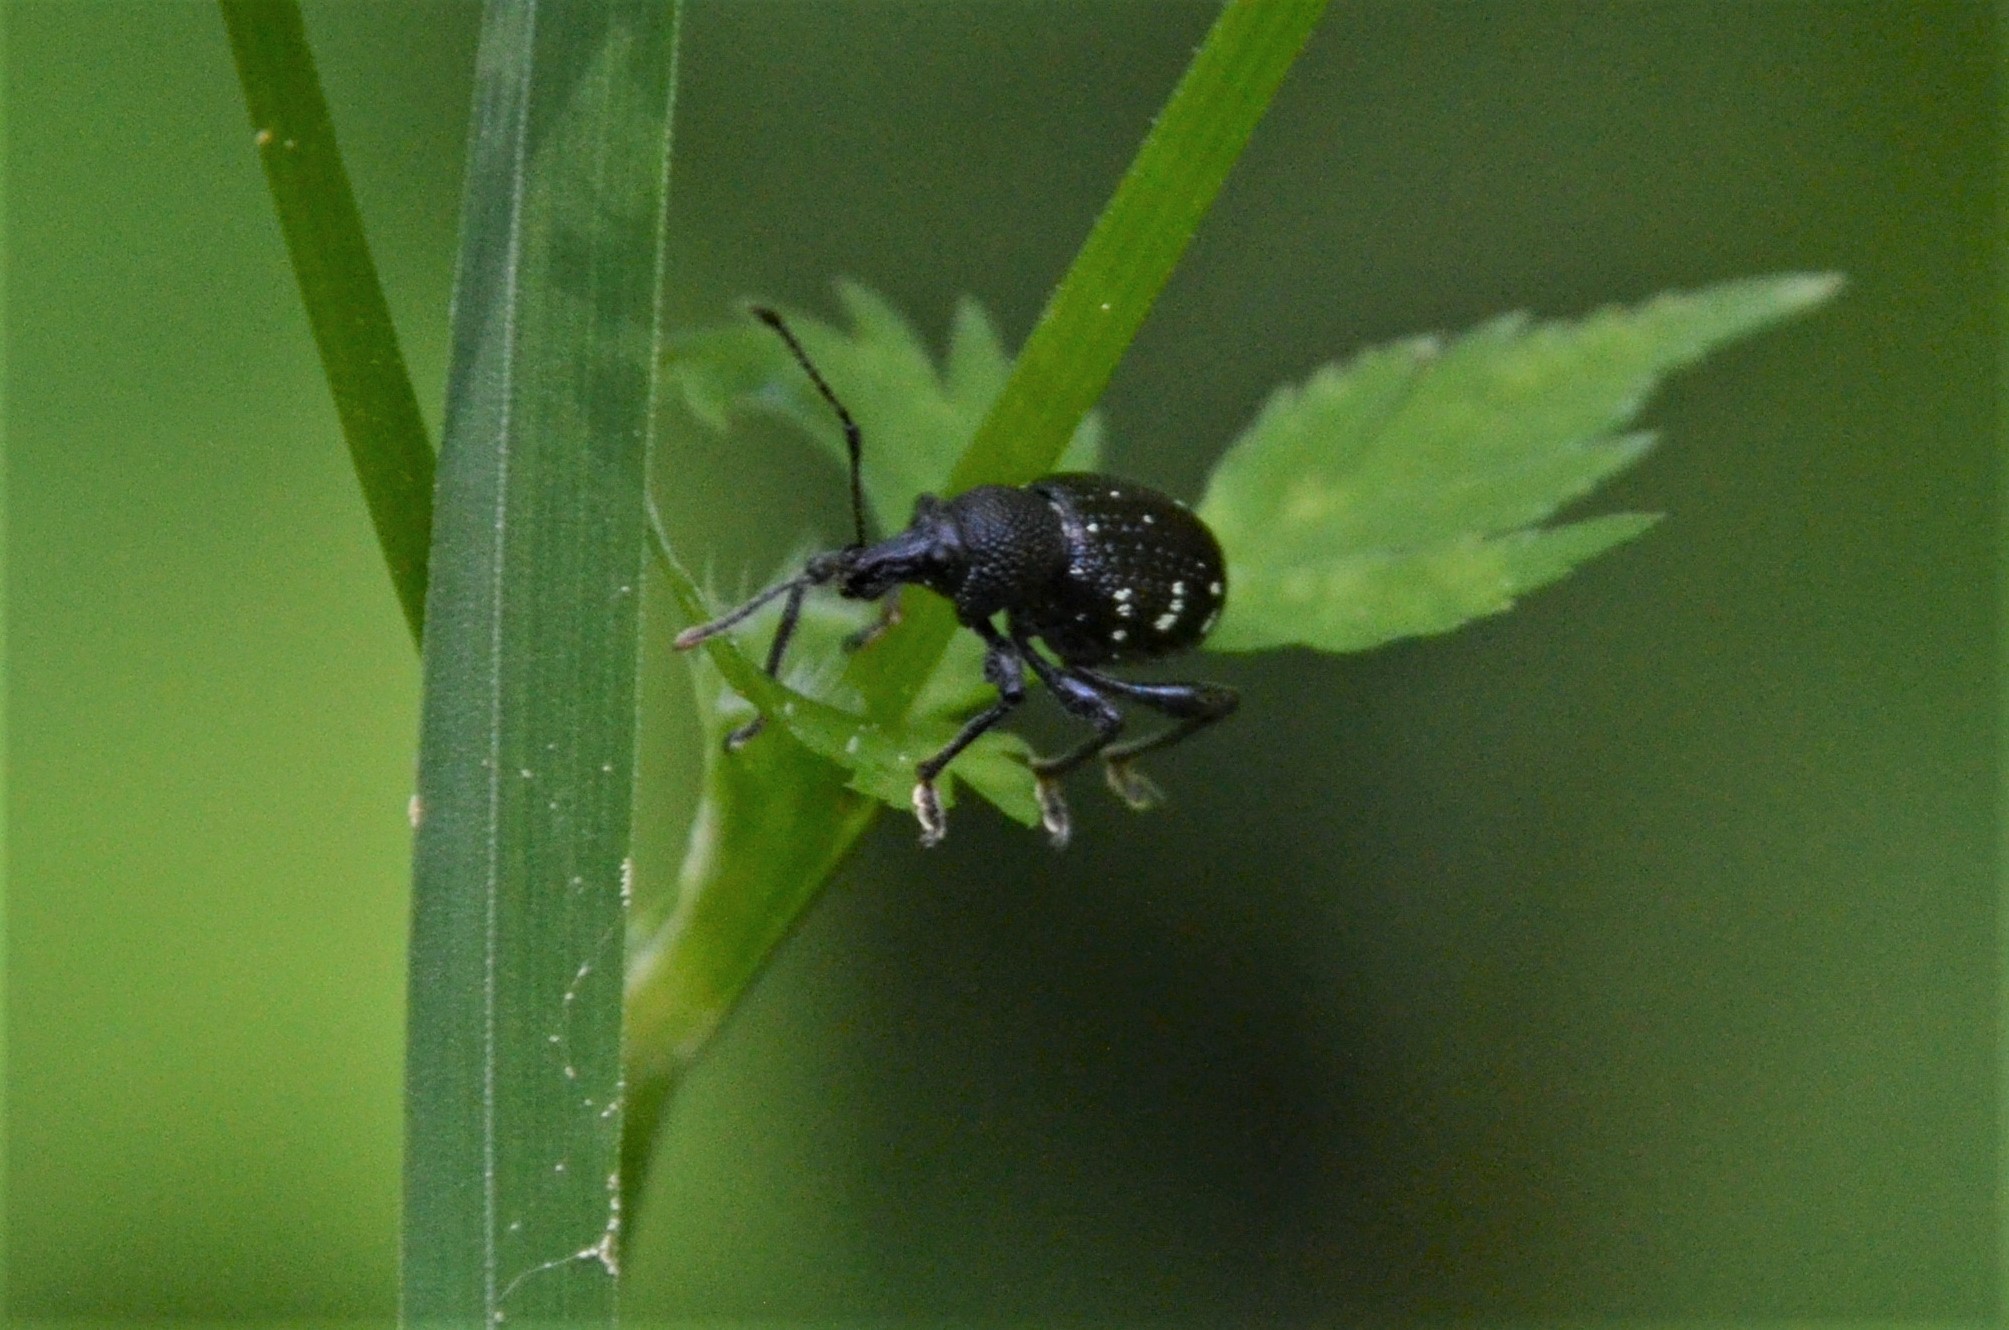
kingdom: Animalia
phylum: Arthropoda
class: Insecta
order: Coleoptera
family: Curculionidae
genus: Otiorhynchus
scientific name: Otiorhynchus gemmatus
